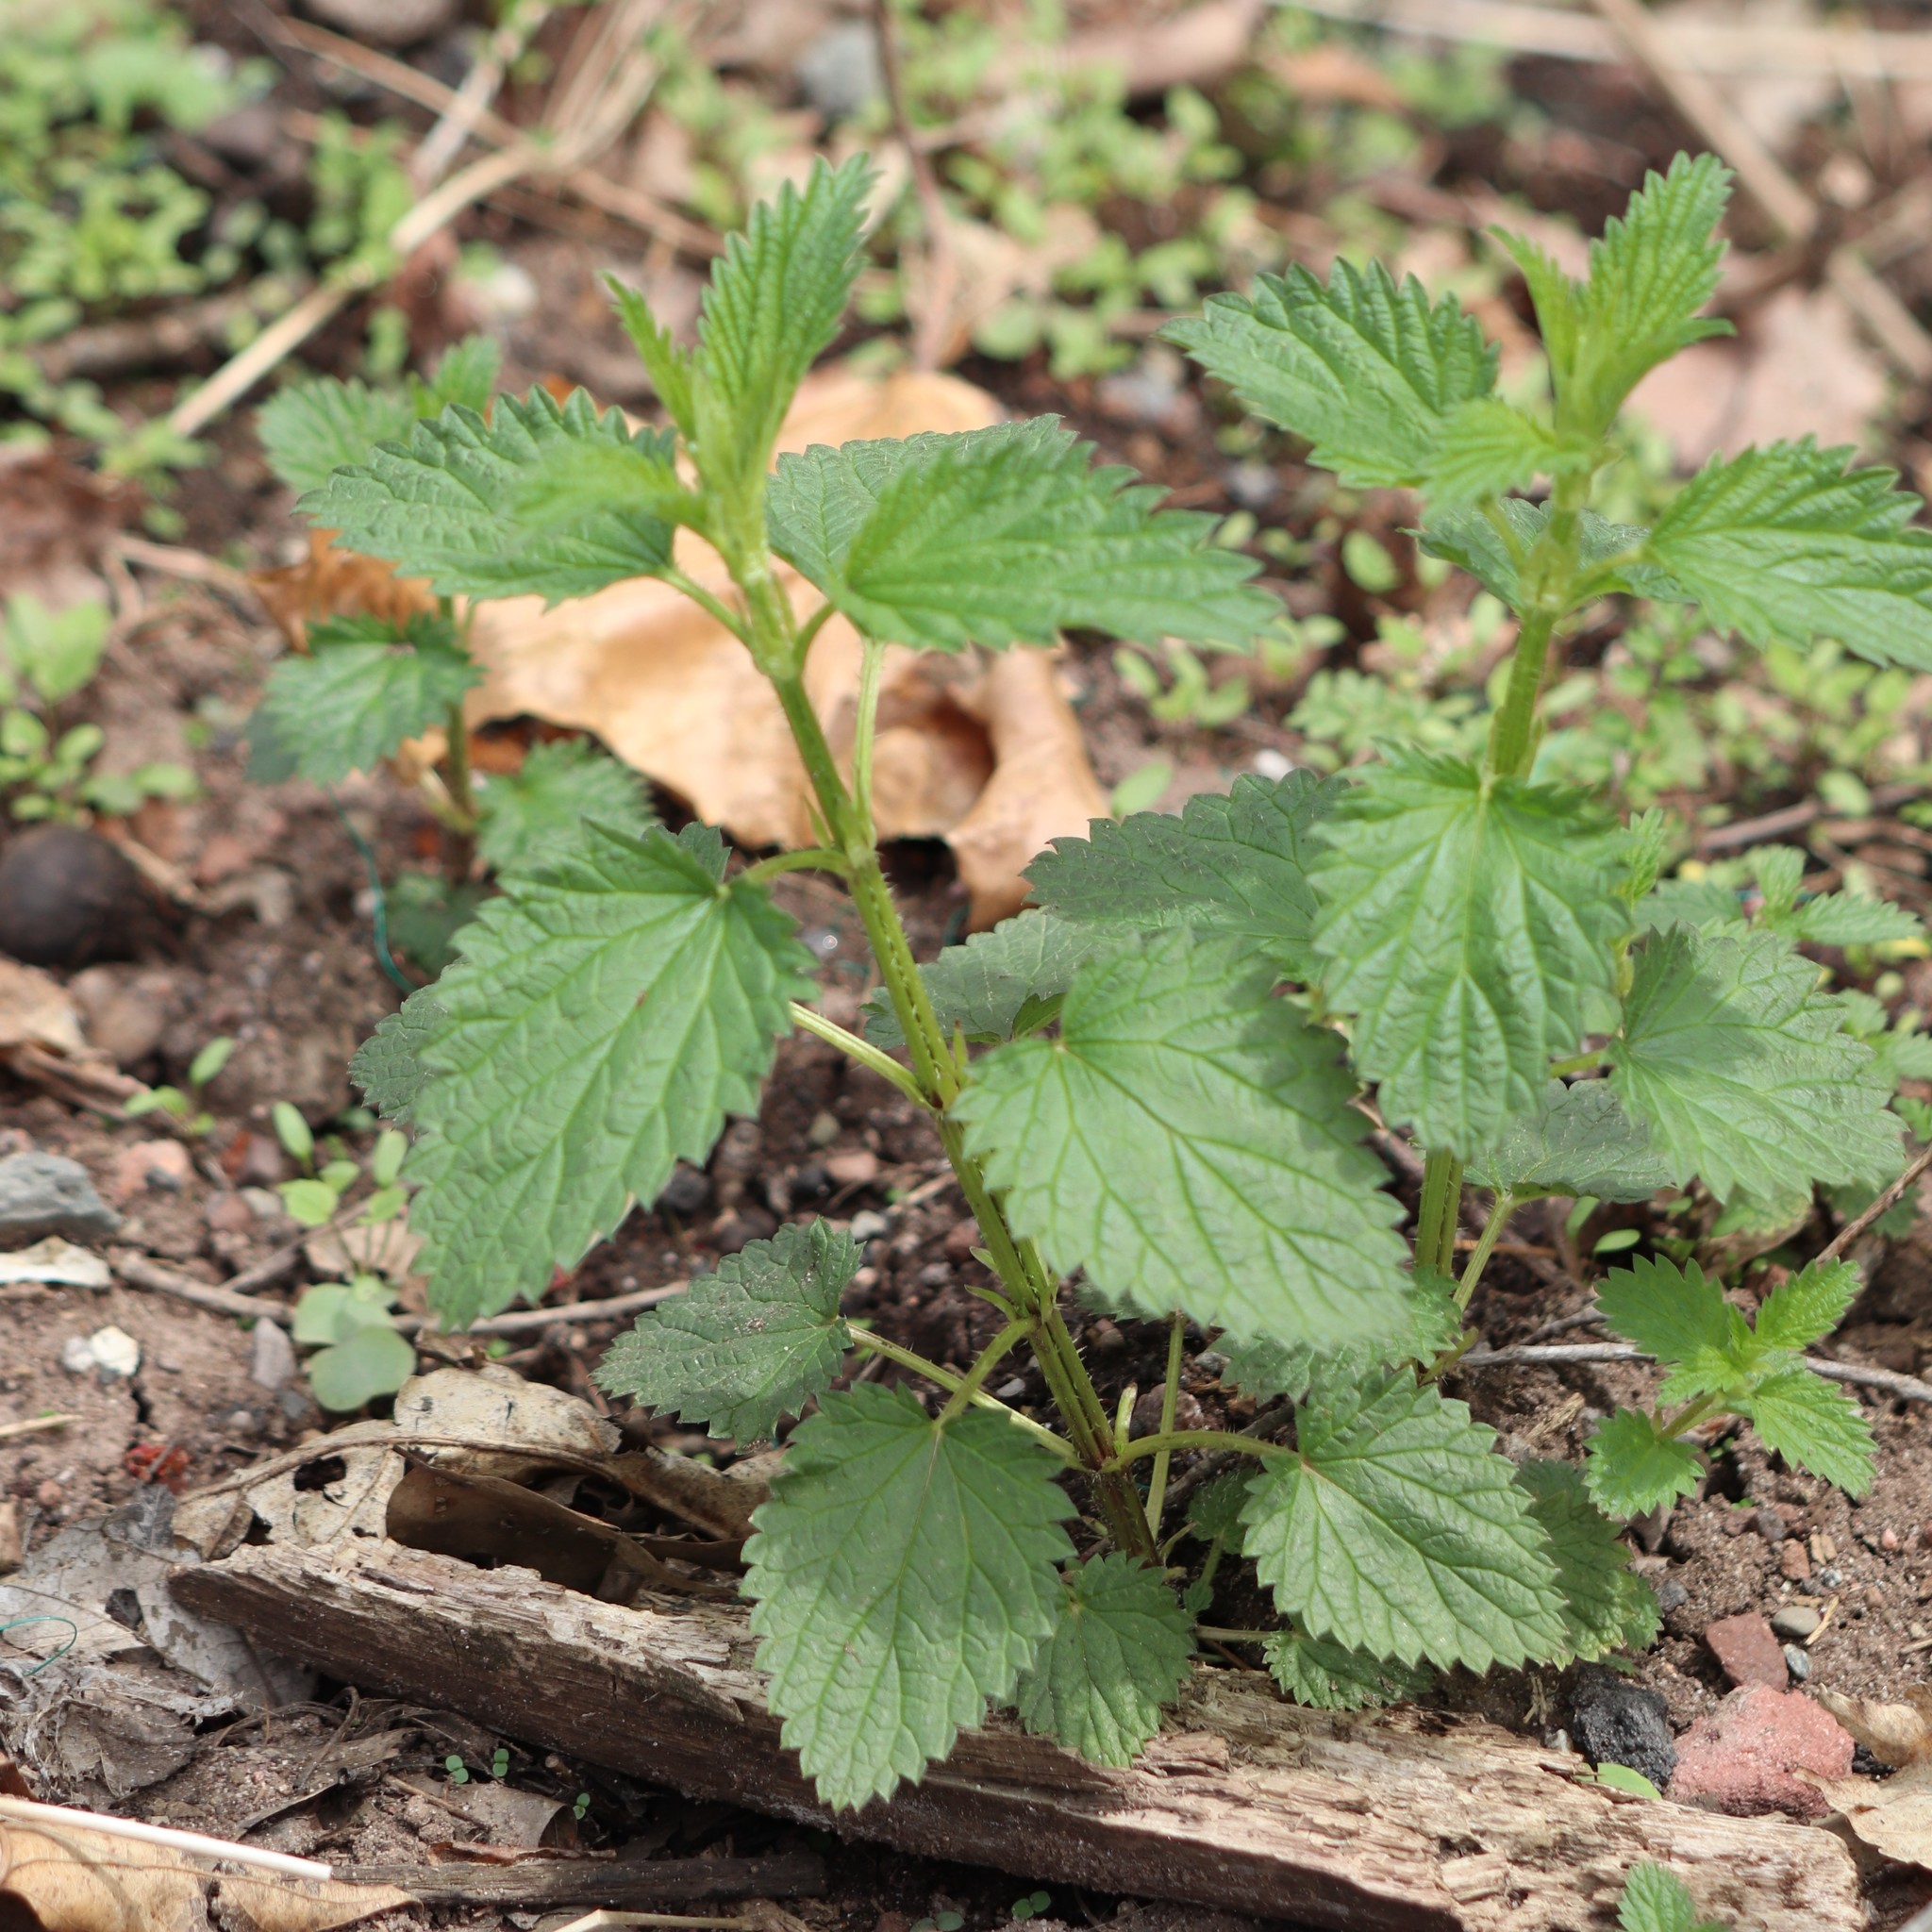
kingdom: Plantae
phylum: Tracheophyta
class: Magnoliopsida
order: Rosales
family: Urticaceae
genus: Urtica
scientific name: Urtica dioica
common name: Common nettle
